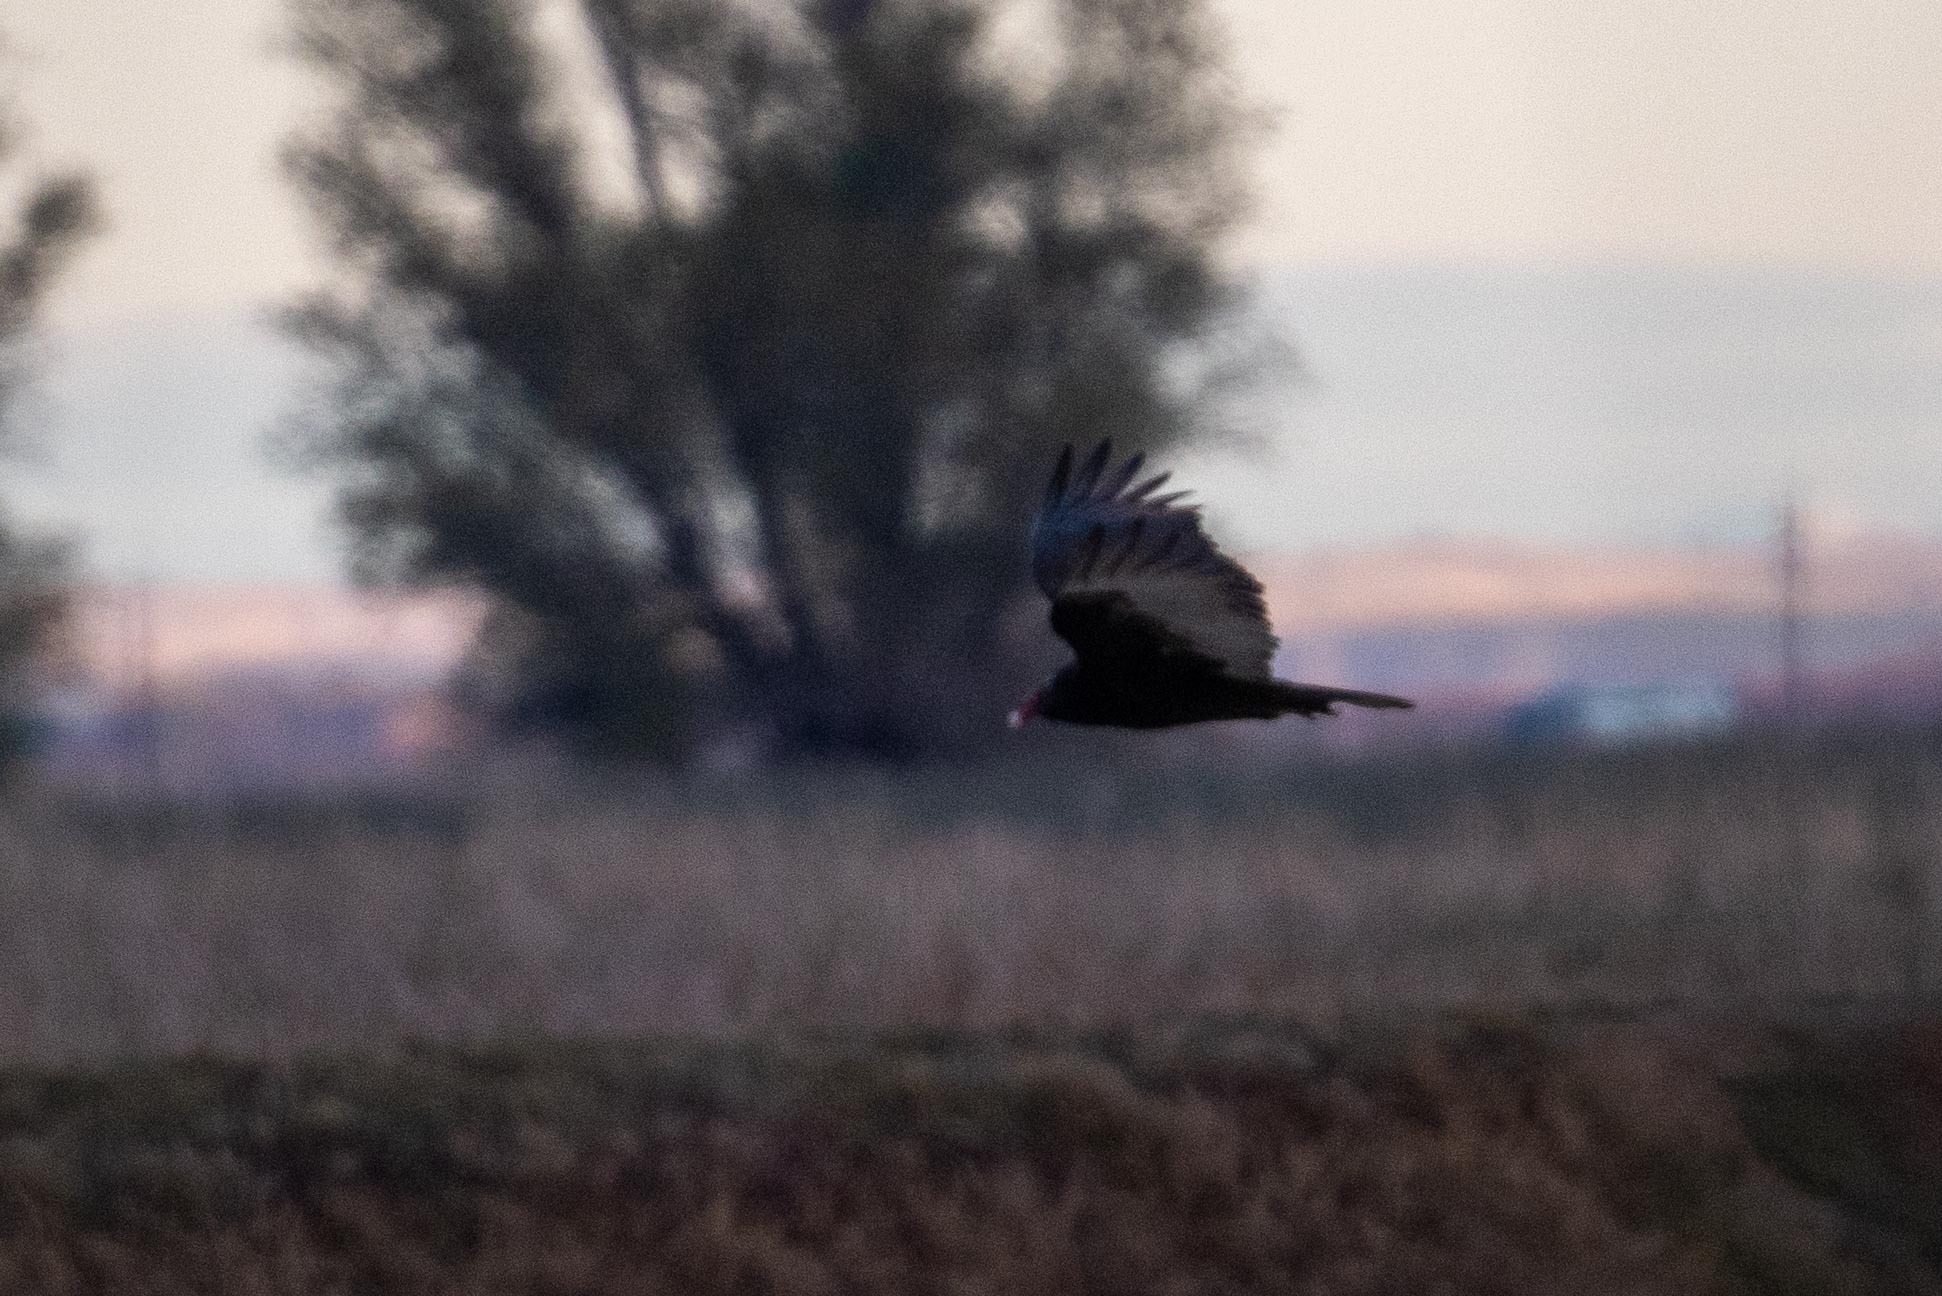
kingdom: Animalia
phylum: Chordata
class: Aves
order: Accipitriformes
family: Cathartidae
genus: Cathartes
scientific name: Cathartes aura
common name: Turkey vulture
